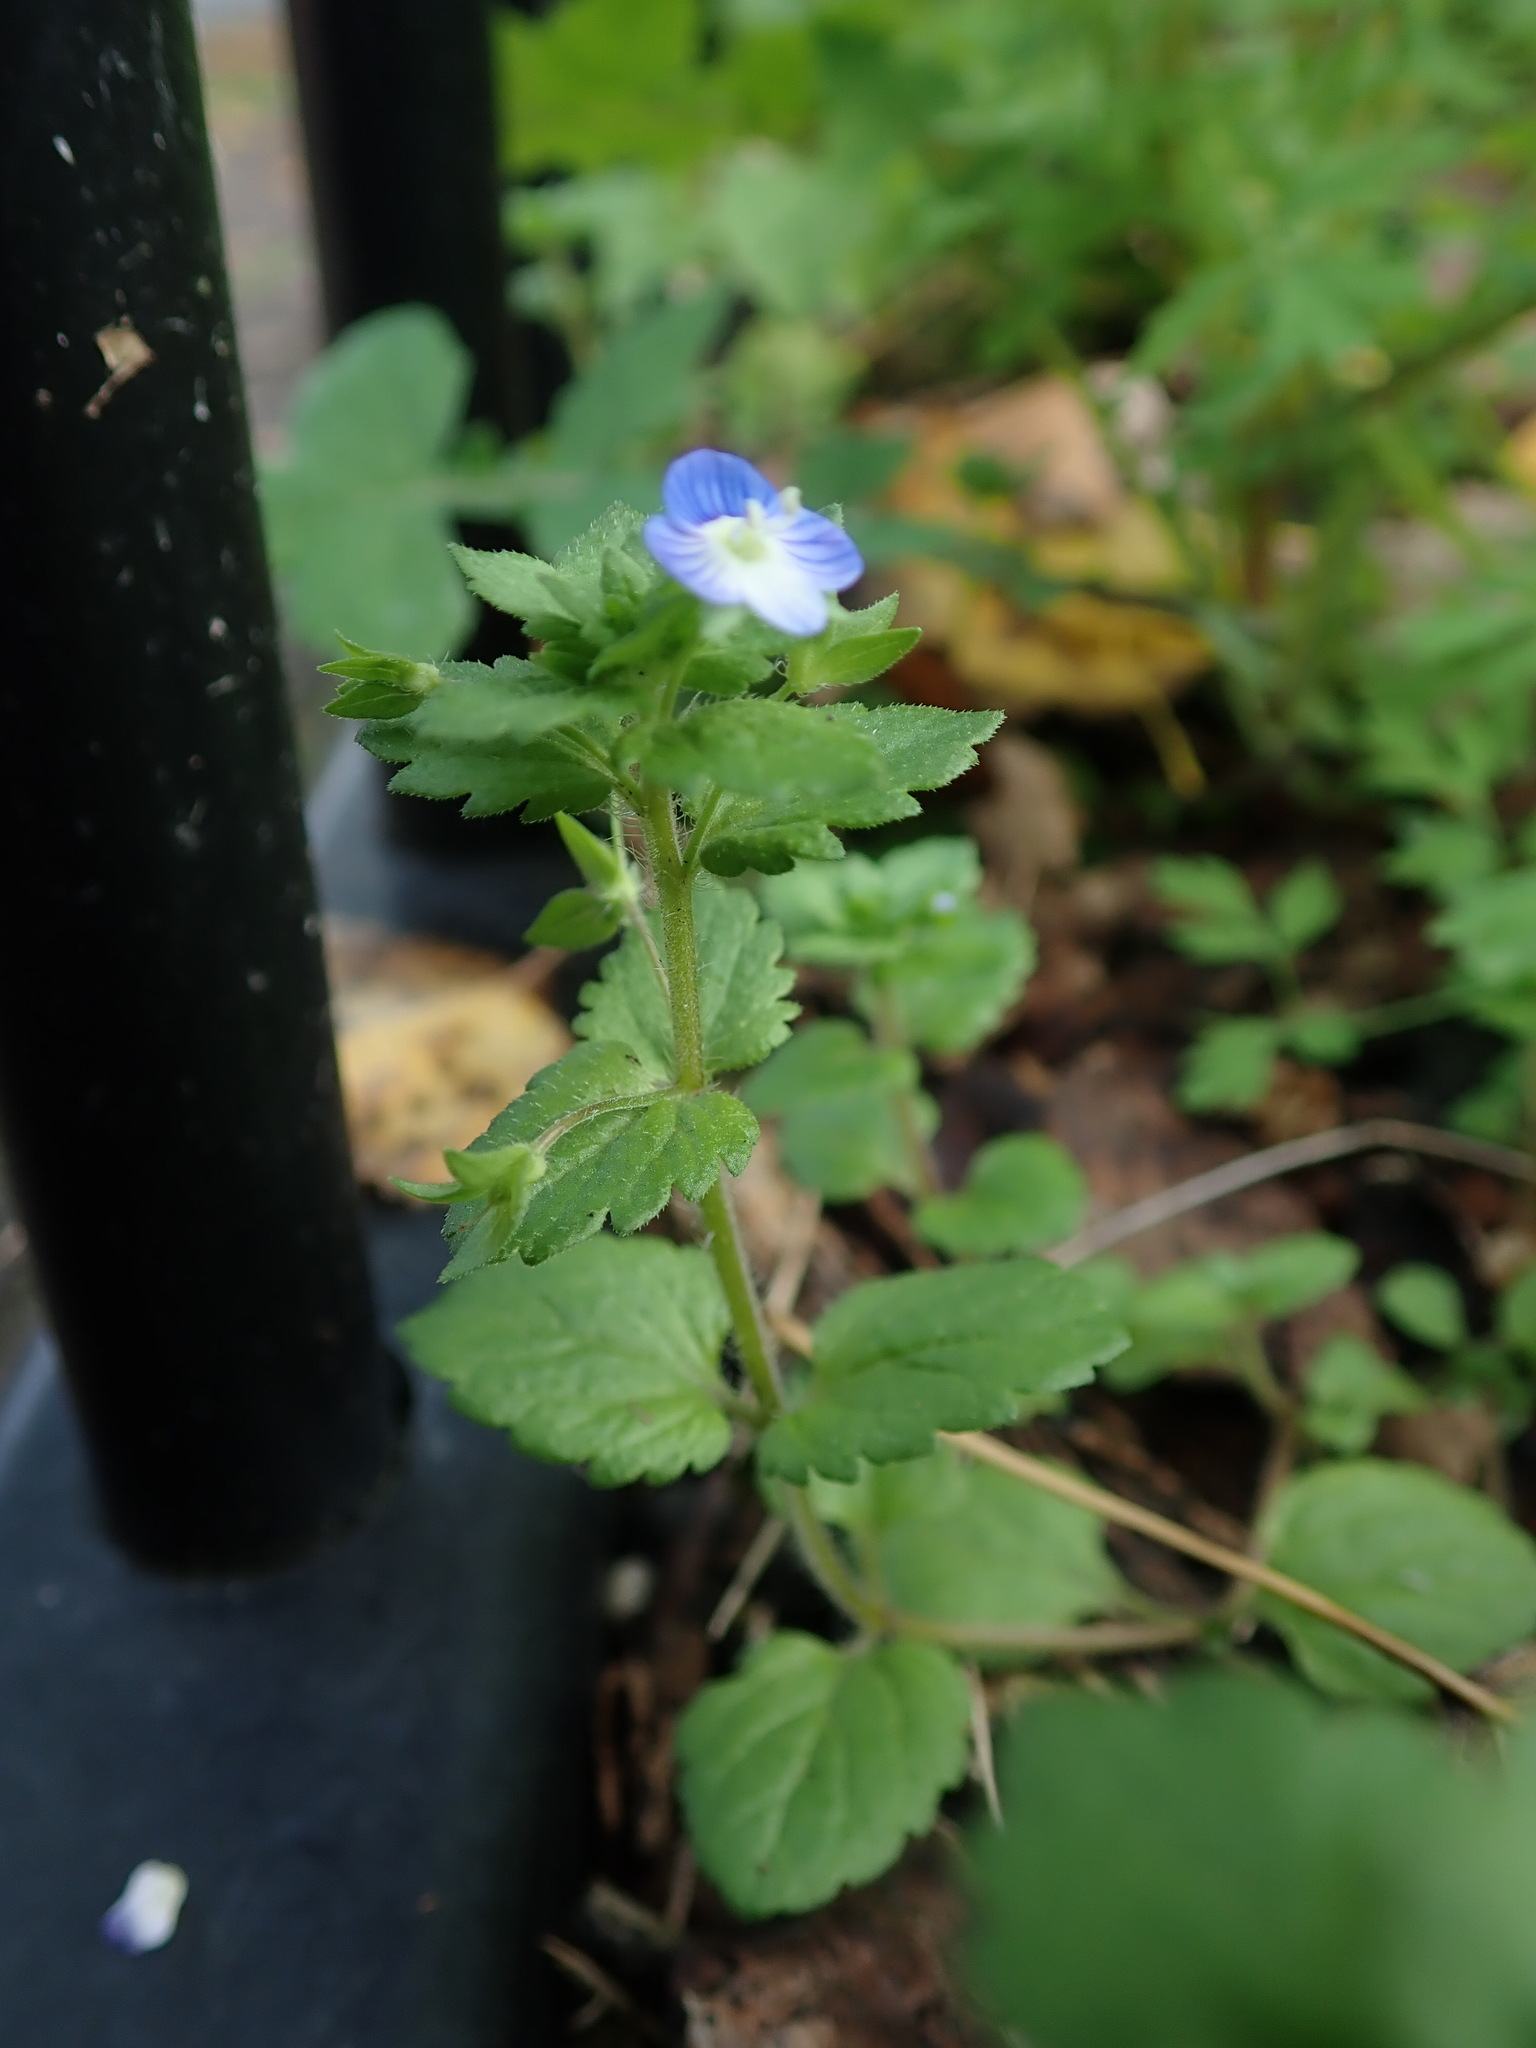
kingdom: Plantae
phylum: Tracheophyta
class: Magnoliopsida
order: Lamiales
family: Plantaginaceae
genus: Veronica
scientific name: Veronica persica
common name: Common field-speedwell
